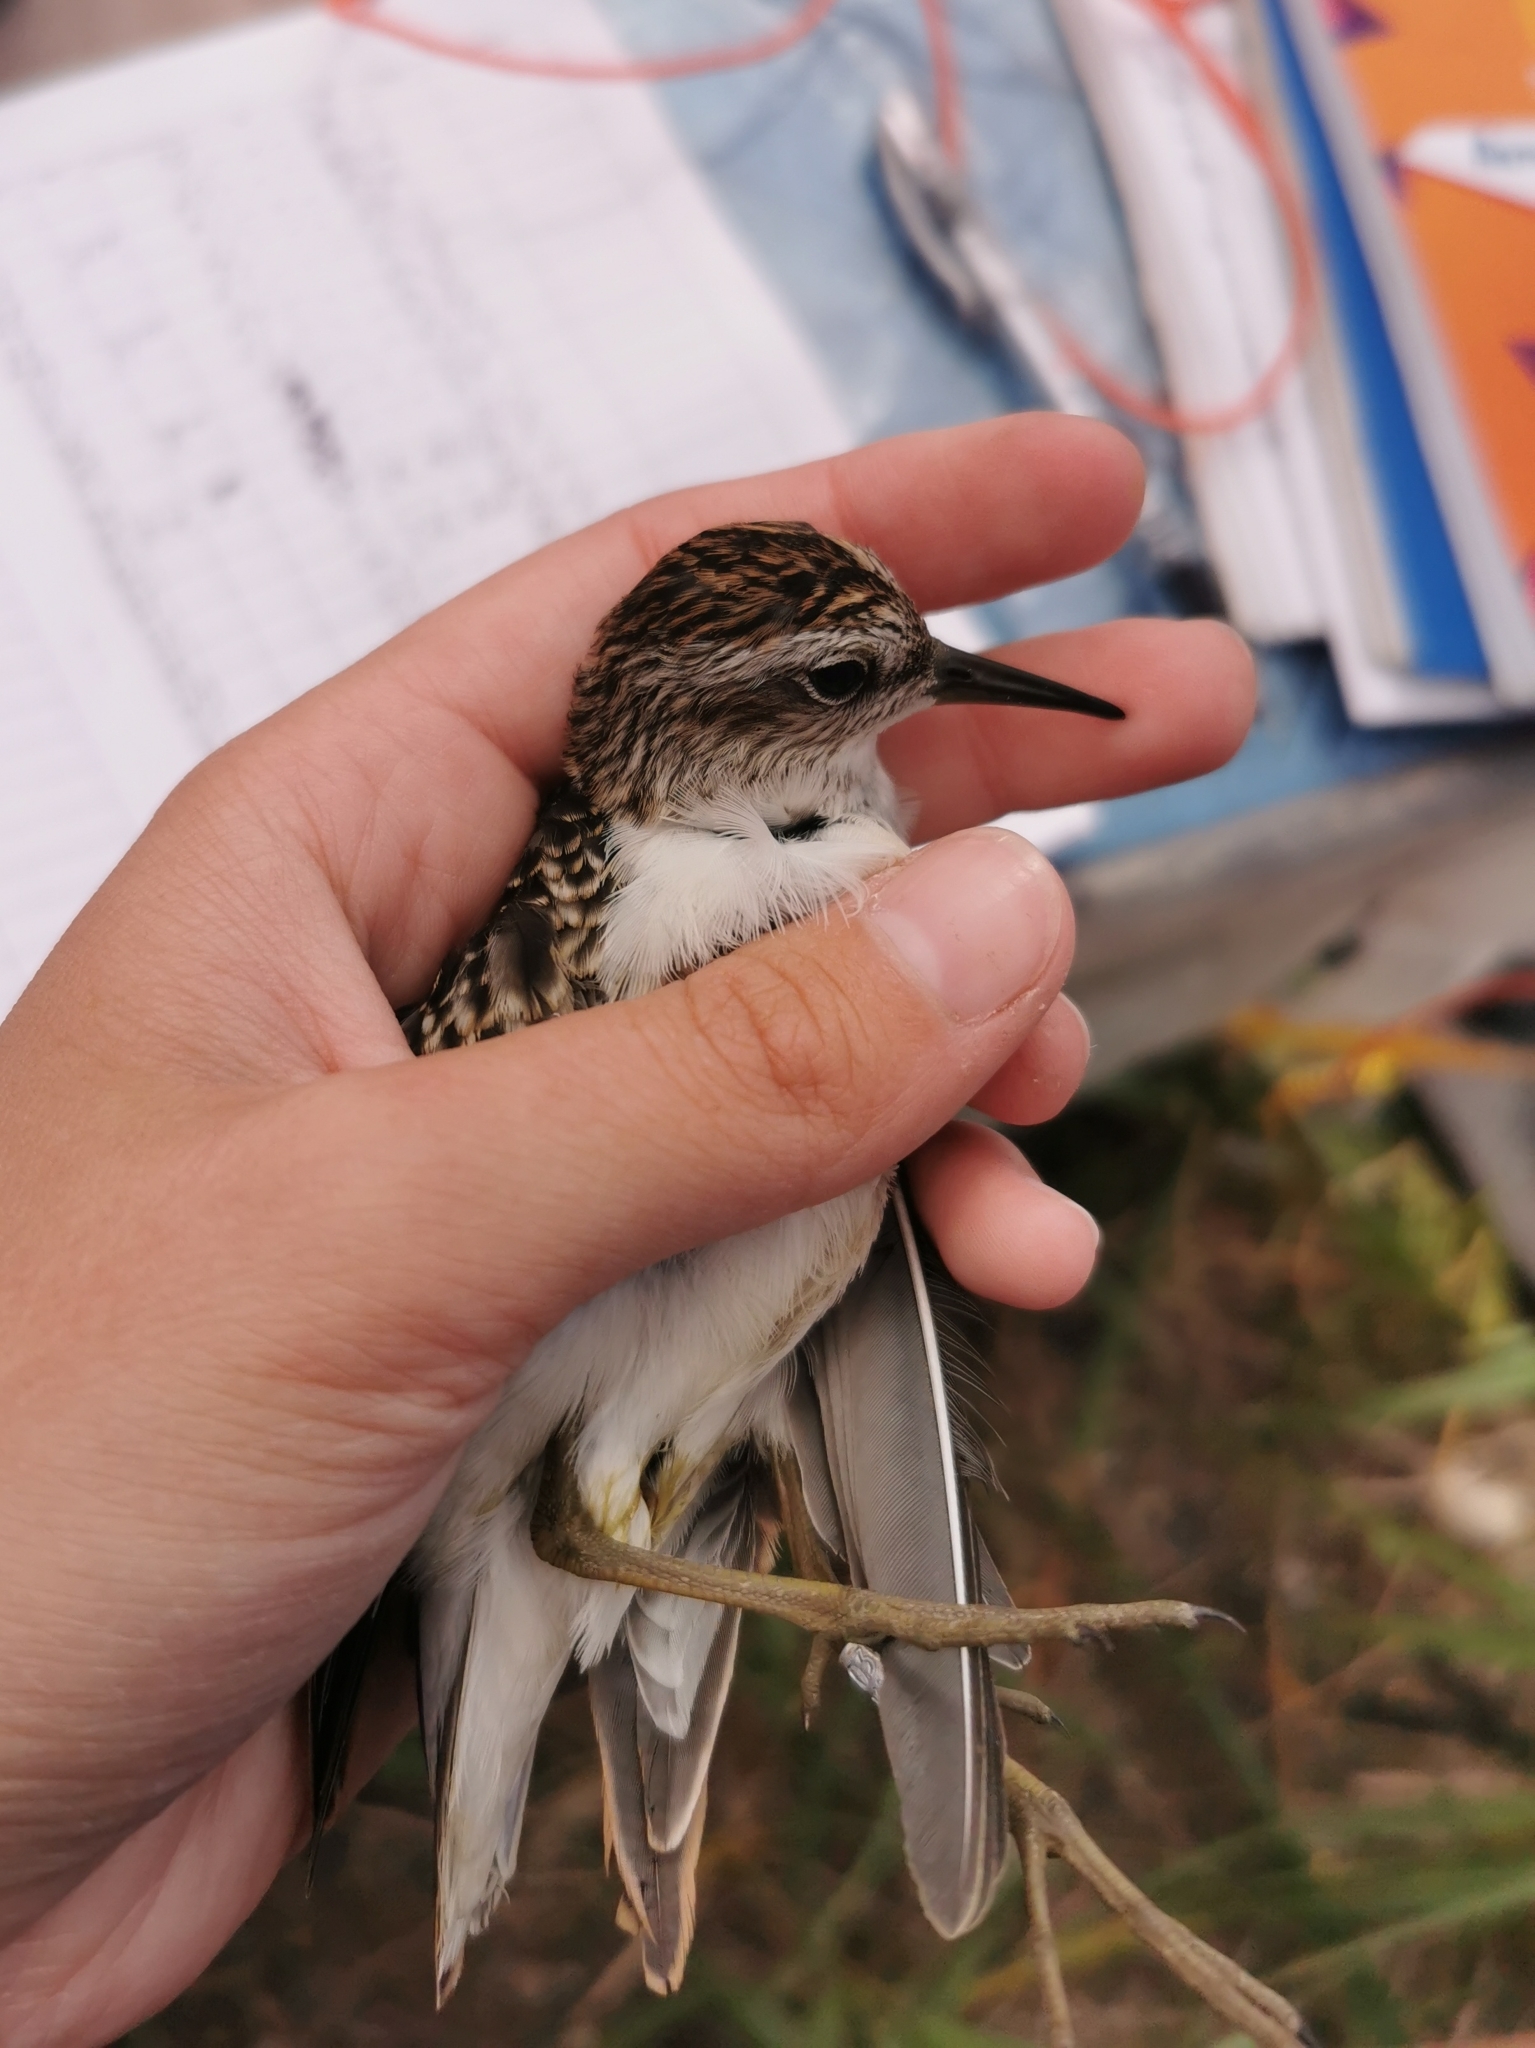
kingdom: Animalia
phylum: Chordata
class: Aves
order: Charadriiformes
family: Scolopacidae
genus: Calidris
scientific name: Calidris subminuta
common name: Long-toed stint
